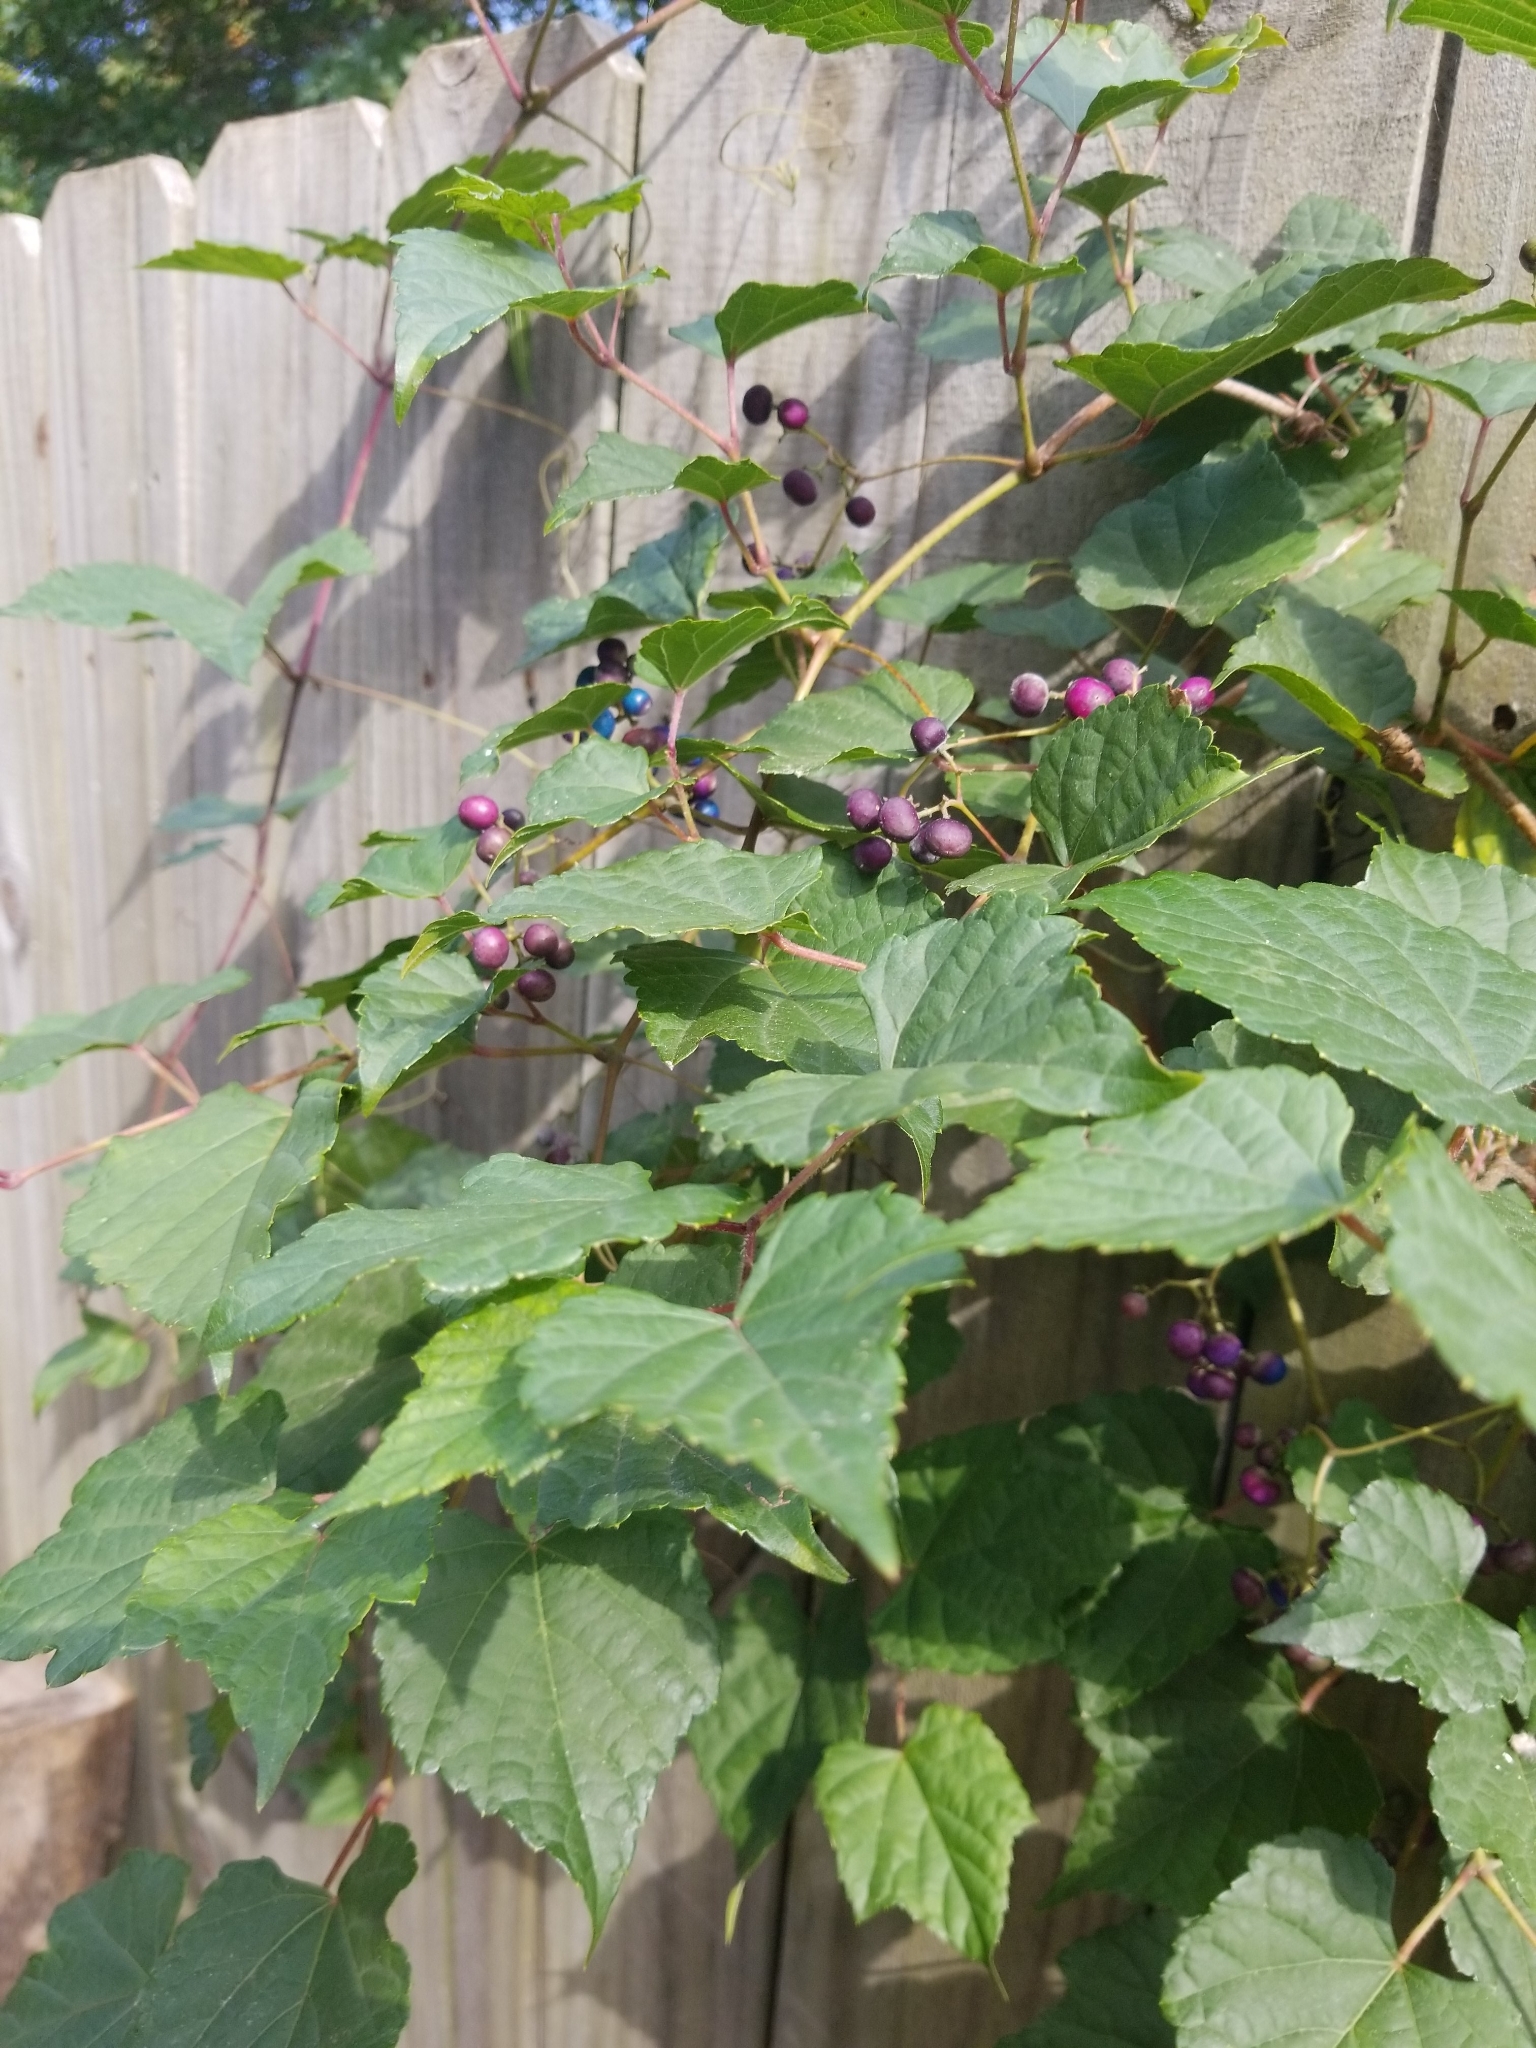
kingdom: Plantae
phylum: Tracheophyta
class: Magnoliopsida
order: Vitales
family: Vitaceae
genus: Ampelopsis
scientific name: Ampelopsis glandulosa
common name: Amur peppervine
